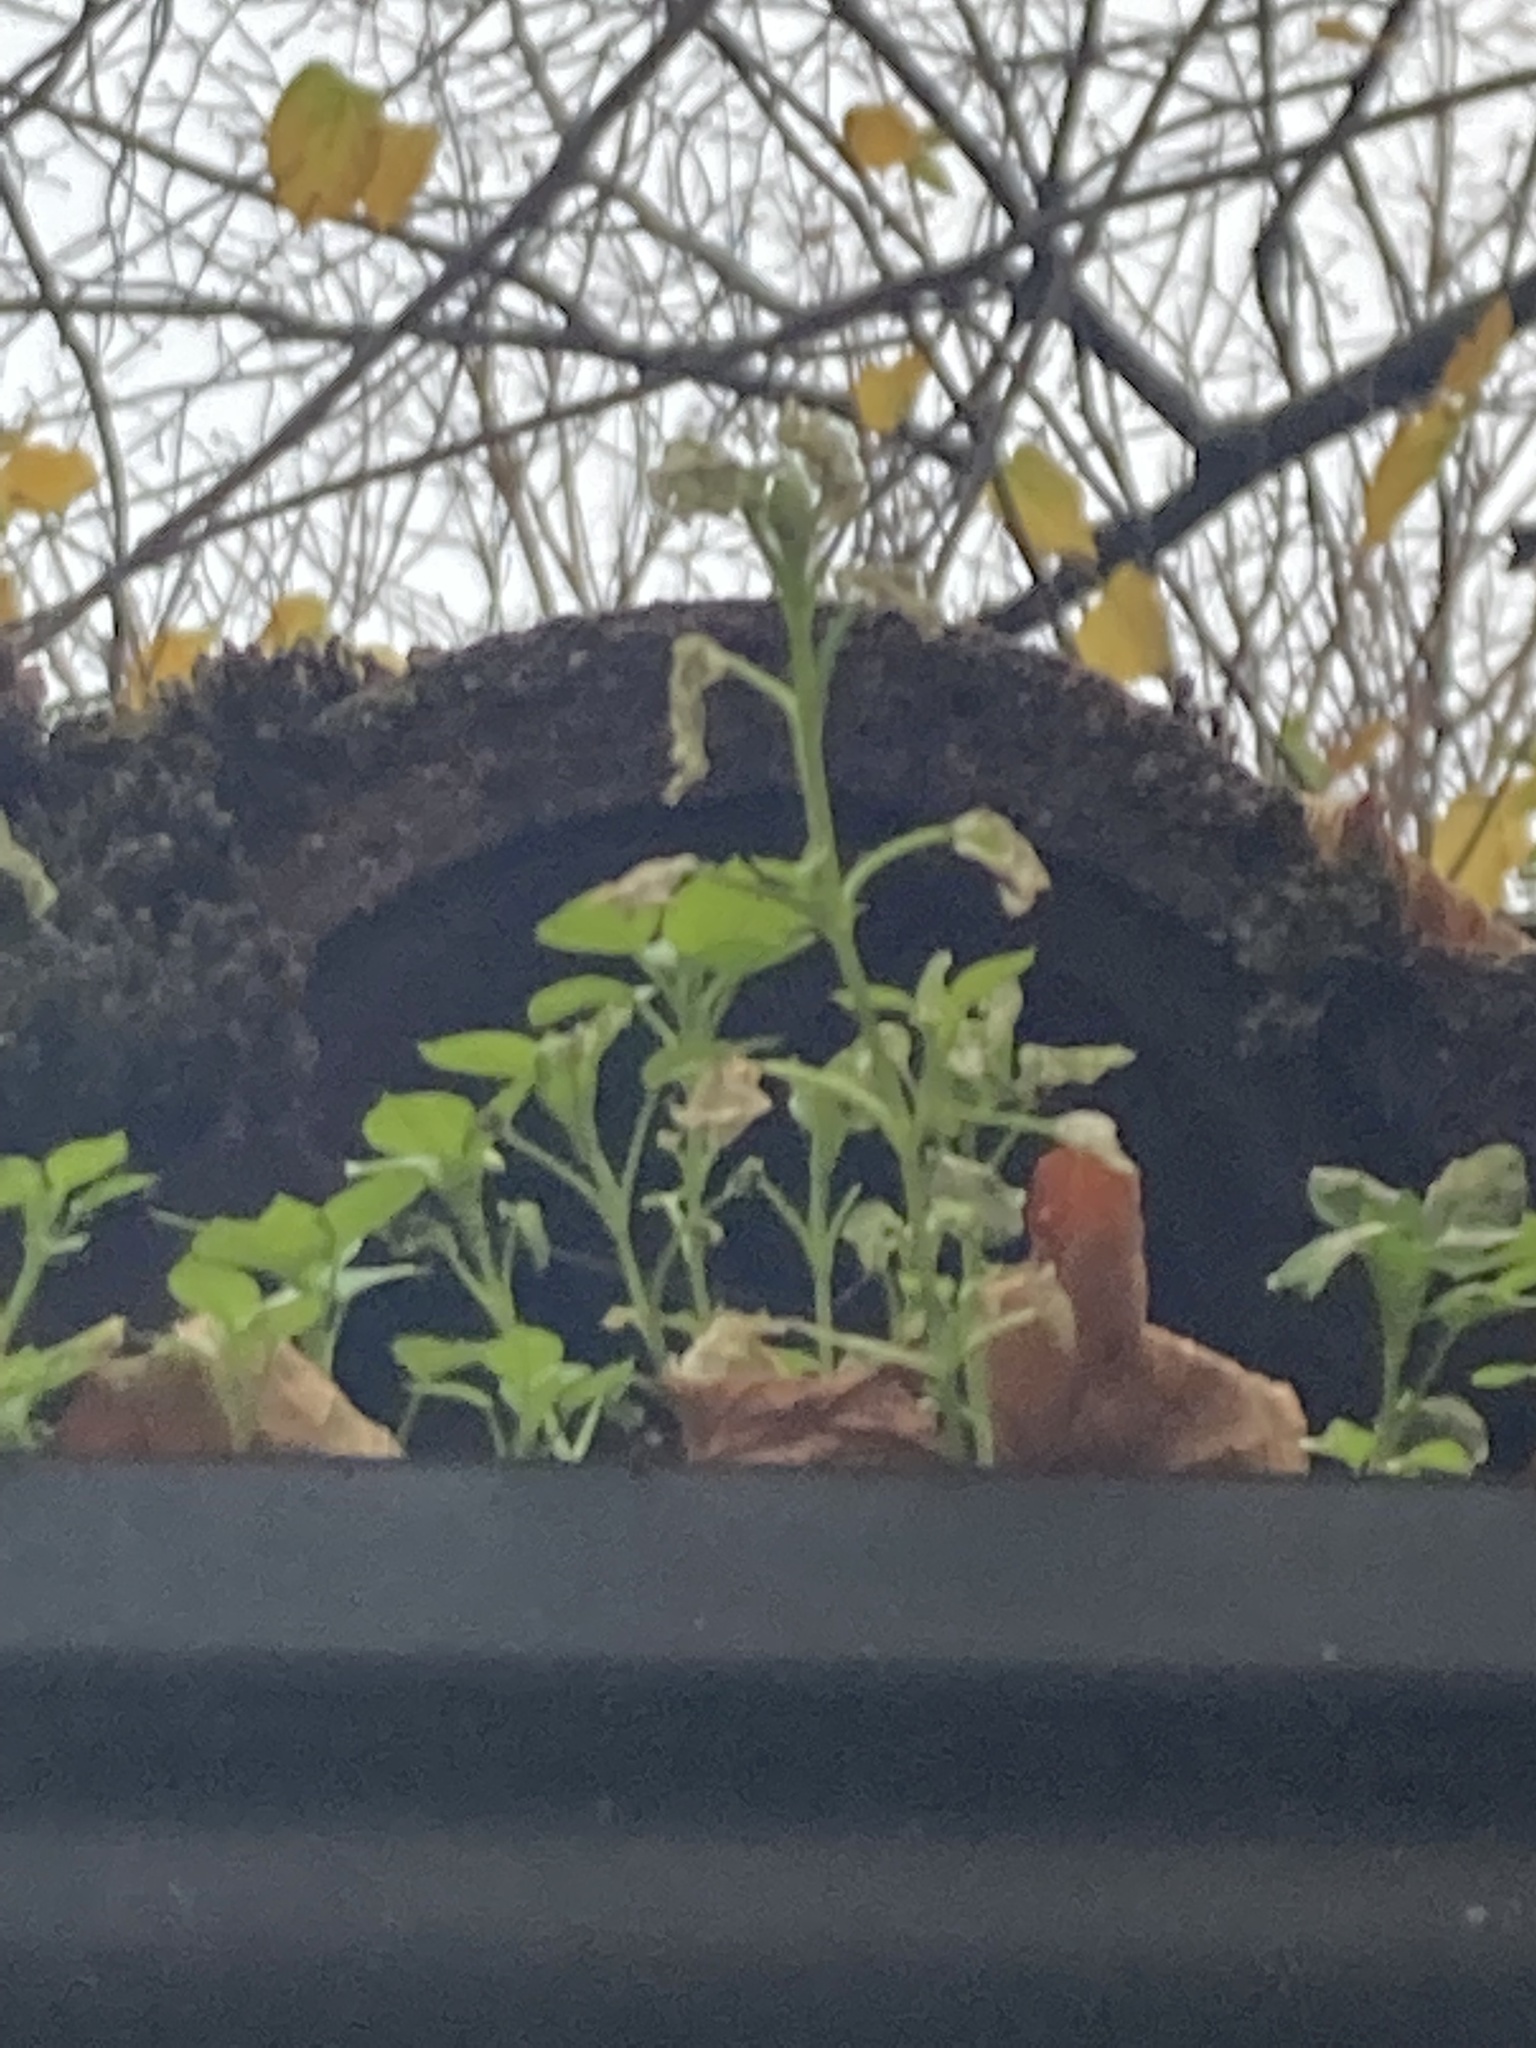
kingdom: Plantae
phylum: Tracheophyta
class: Magnoliopsida
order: Caryophyllales
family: Caryophyllaceae
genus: Stellaria
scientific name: Stellaria media
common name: Common chickweed
